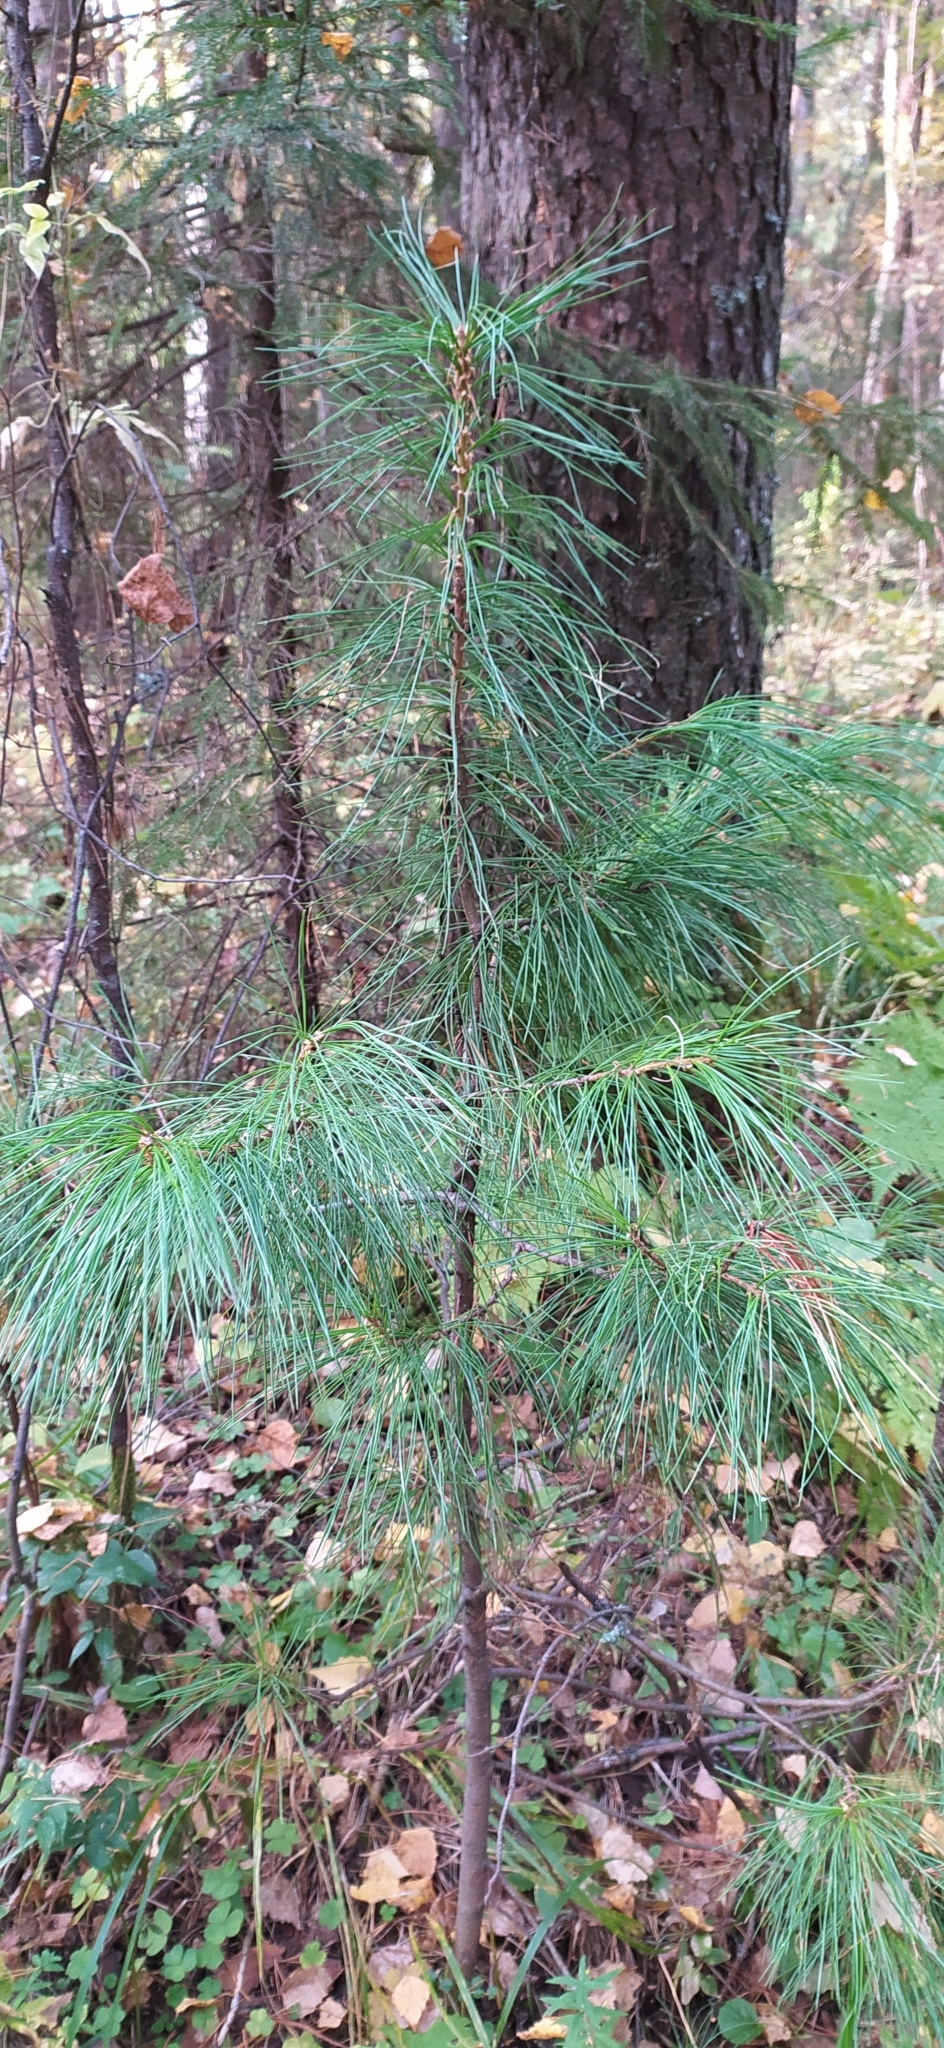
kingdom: Plantae
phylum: Tracheophyta
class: Pinopsida
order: Pinales
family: Pinaceae
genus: Pinus
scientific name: Pinus sibirica
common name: Siberian pine
